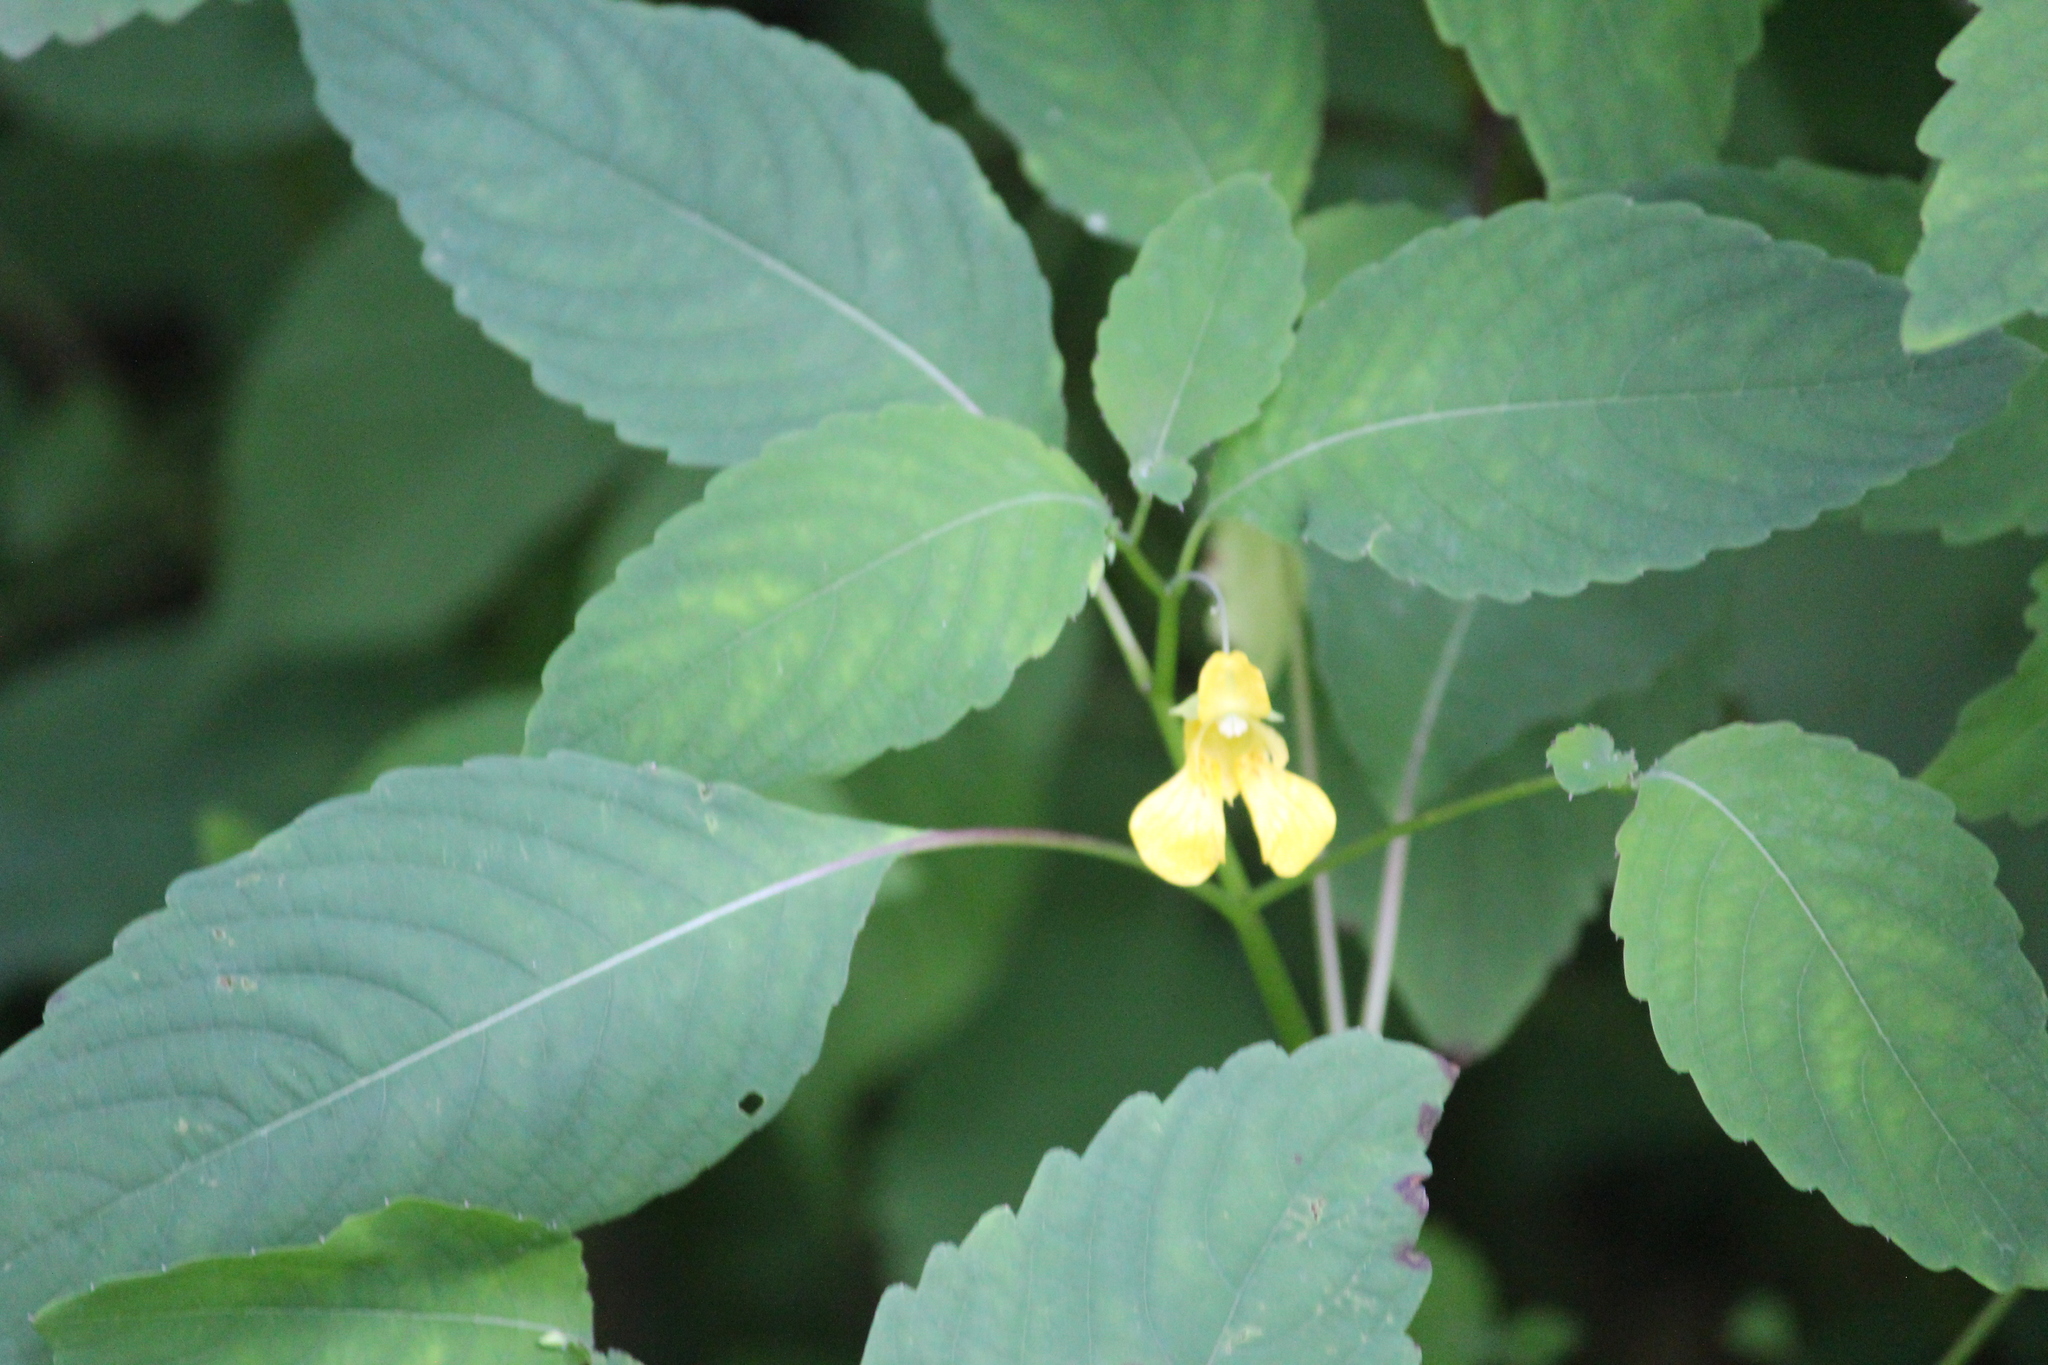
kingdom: Plantae
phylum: Tracheophyta
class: Magnoliopsida
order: Ericales
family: Balsaminaceae
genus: Impatiens
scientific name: Impatiens pallida
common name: Pale snapweed
